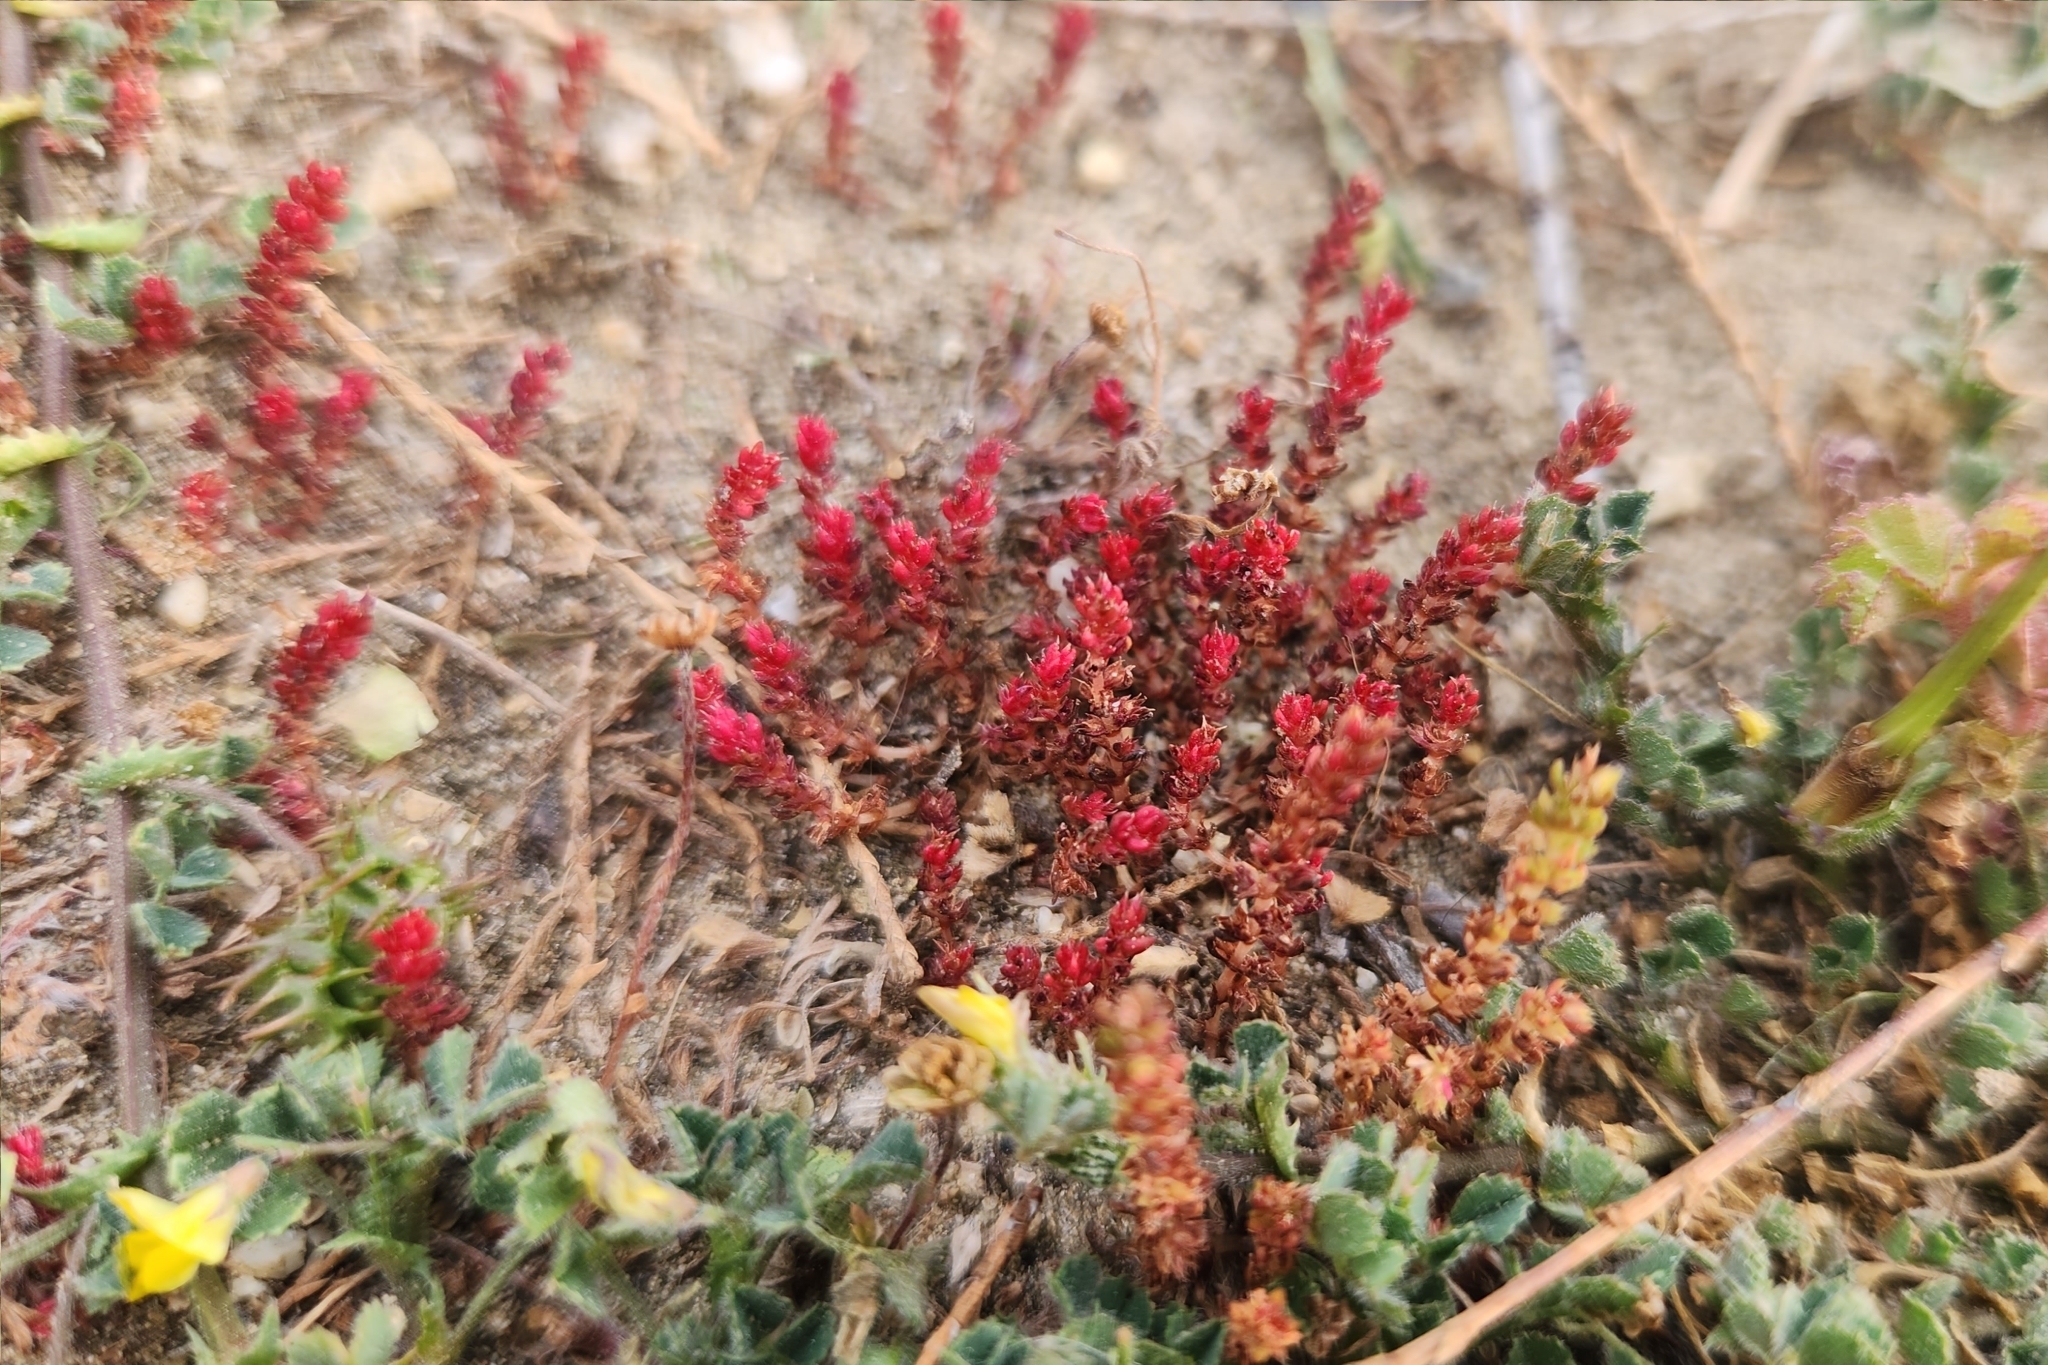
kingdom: Plantae
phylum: Tracheophyta
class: Magnoliopsida
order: Saxifragales
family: Crassulaceae
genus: Crassula
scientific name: Crassula tillaea
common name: Mossy stonecrop
